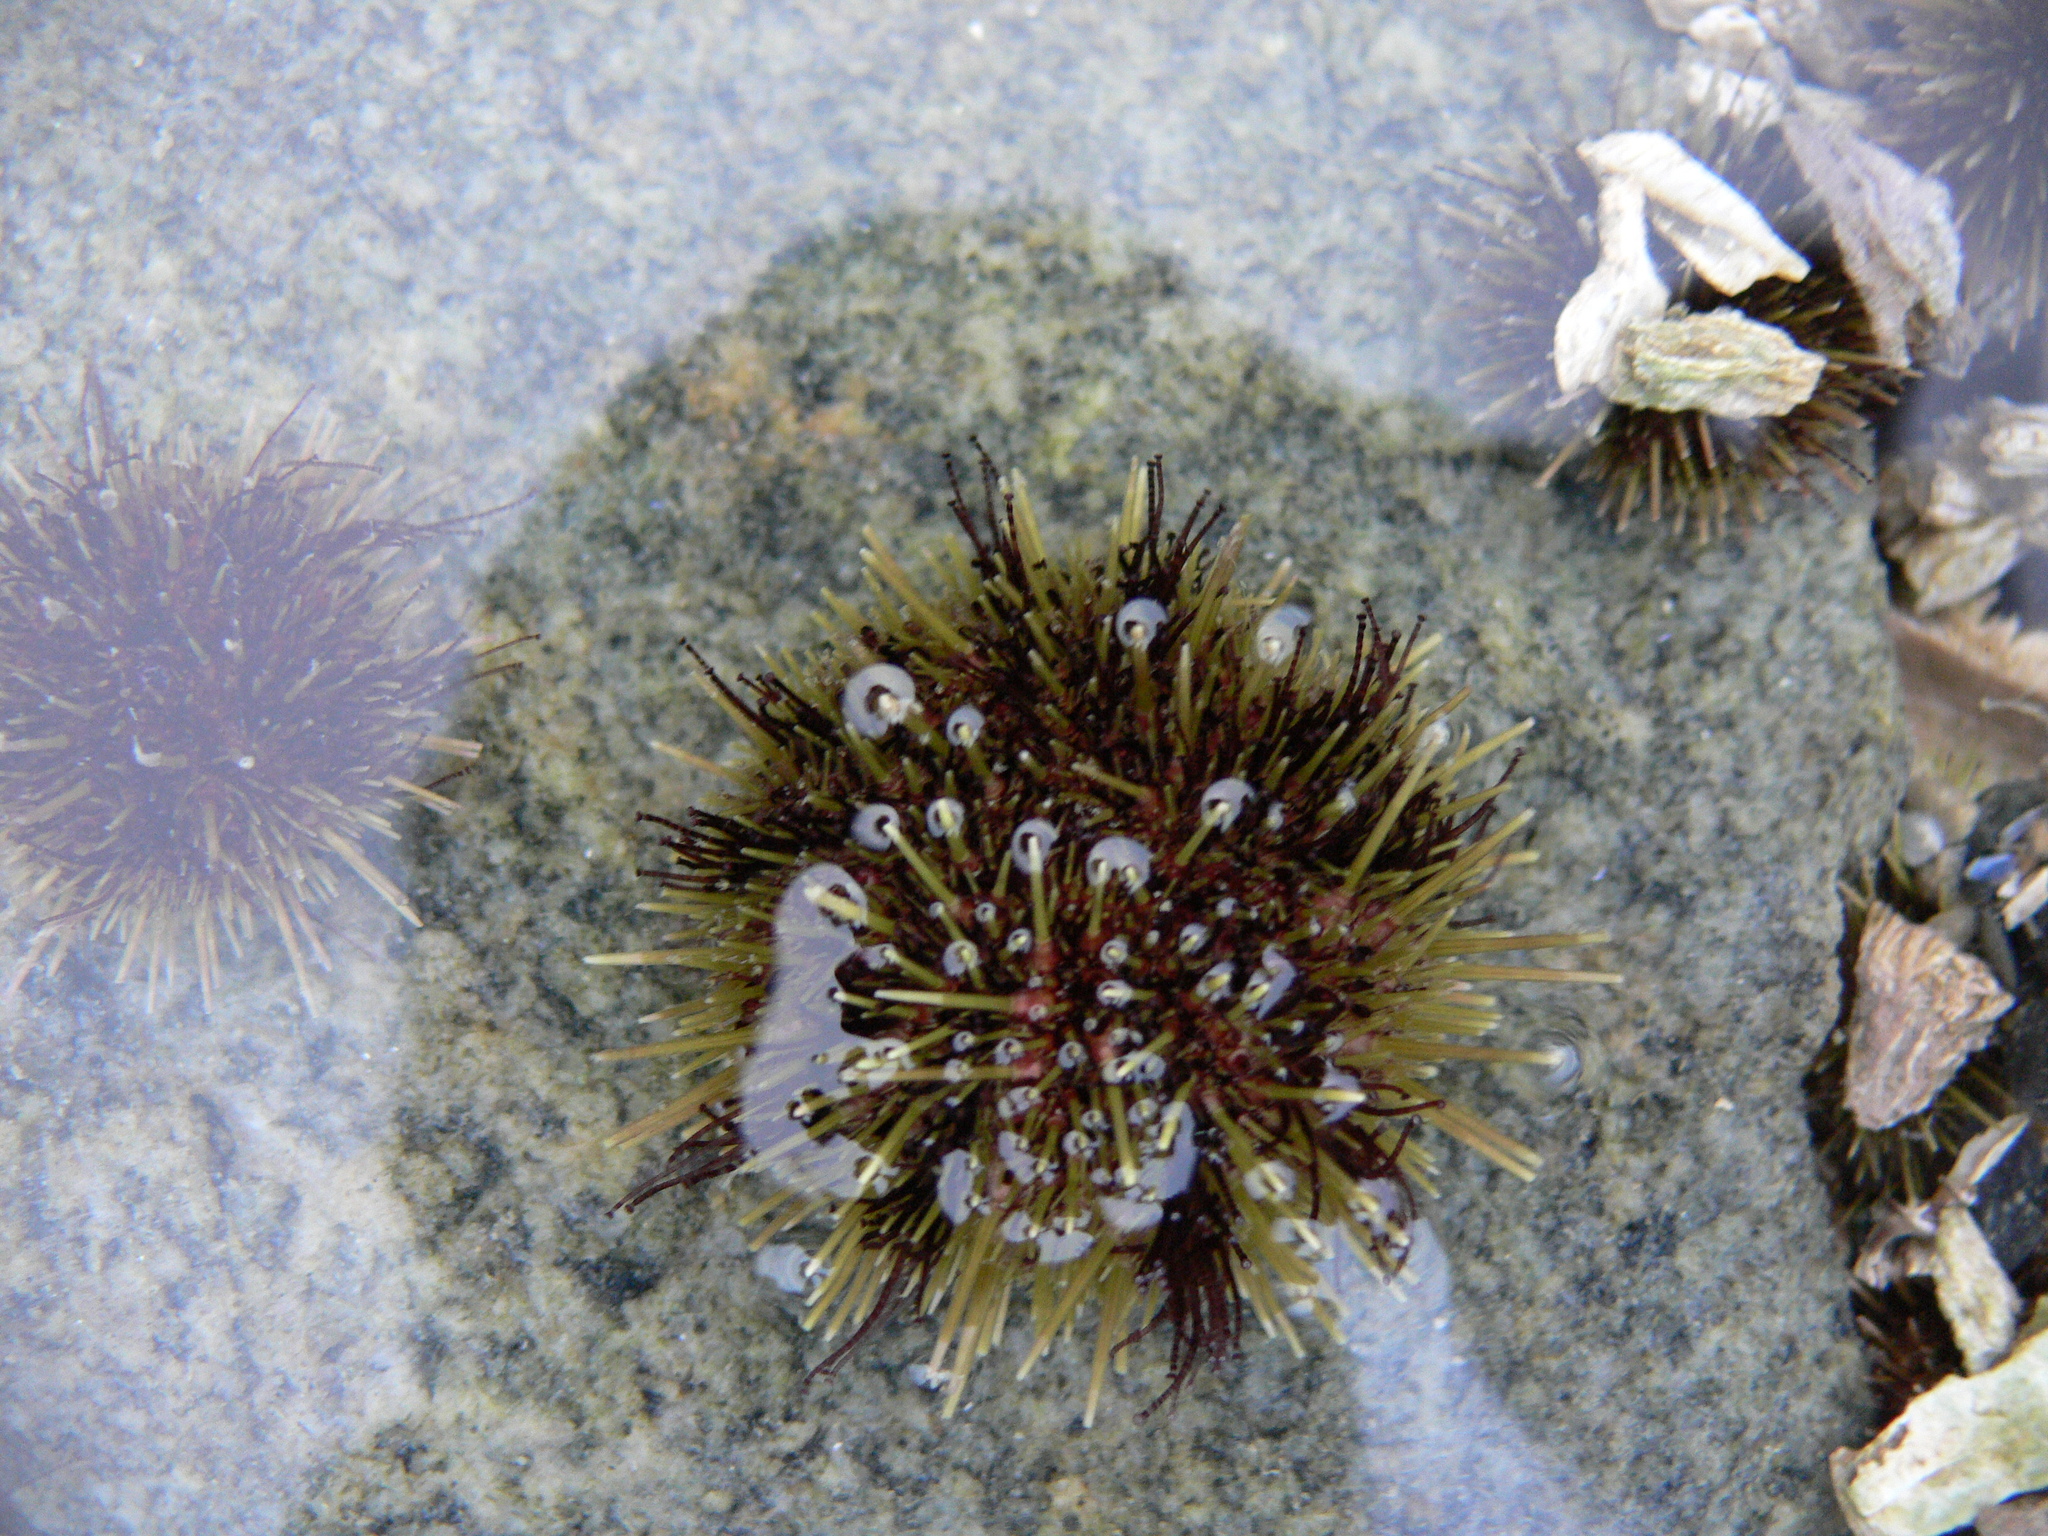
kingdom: Animalia
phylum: Echinodermata
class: Echinoidea
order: Camarodonta
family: Strongylocentrotidae
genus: Strongylocentrotus
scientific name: Strongylocentrotus droebachiensis
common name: Northern sea urchin
